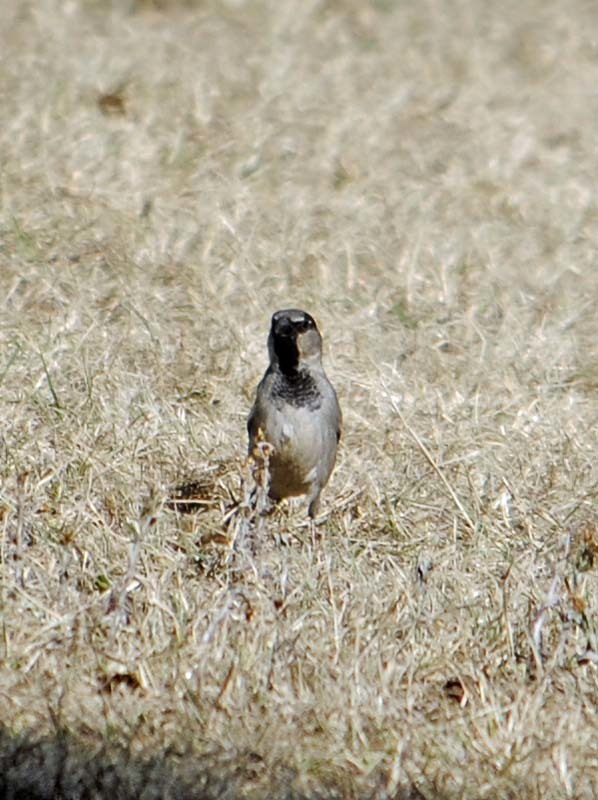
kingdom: Animalia
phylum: Chordata
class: Aves
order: Passeriformes
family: Passeridae
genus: Passer
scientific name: Passer domesticus
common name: House sparrow
